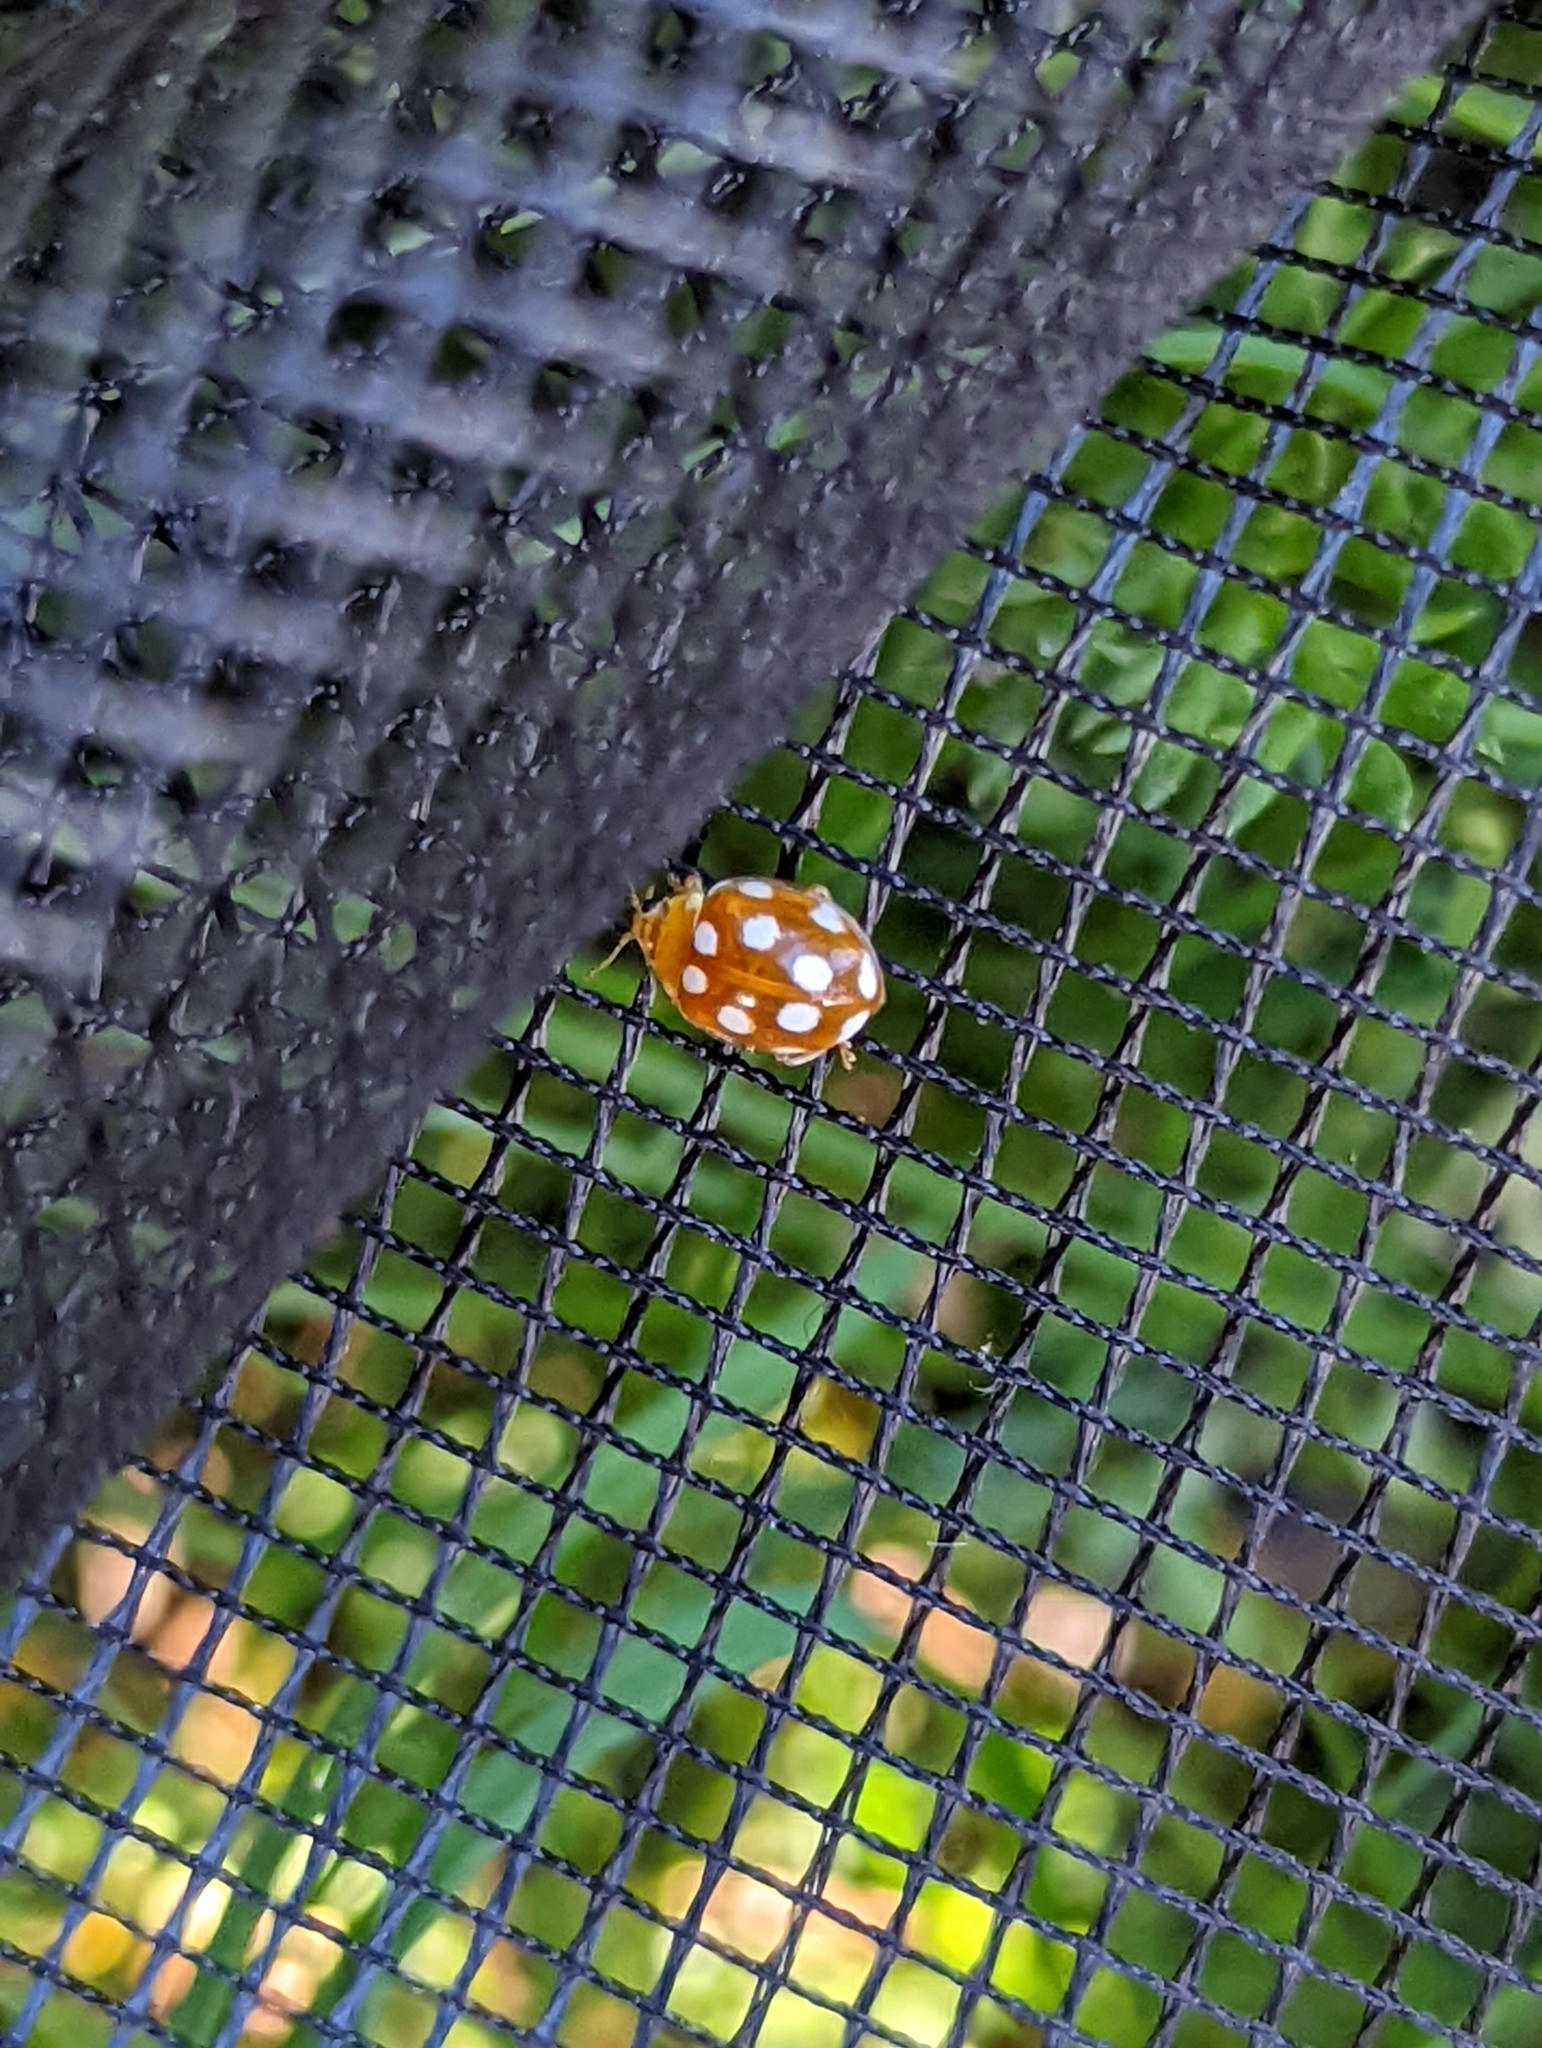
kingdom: Animalia
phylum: Arthropoda
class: Insecta
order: Coleoptera
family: Coccinellidae
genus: Vibidia
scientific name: Vibidia duodecimguttata
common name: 12-spot ladybird
